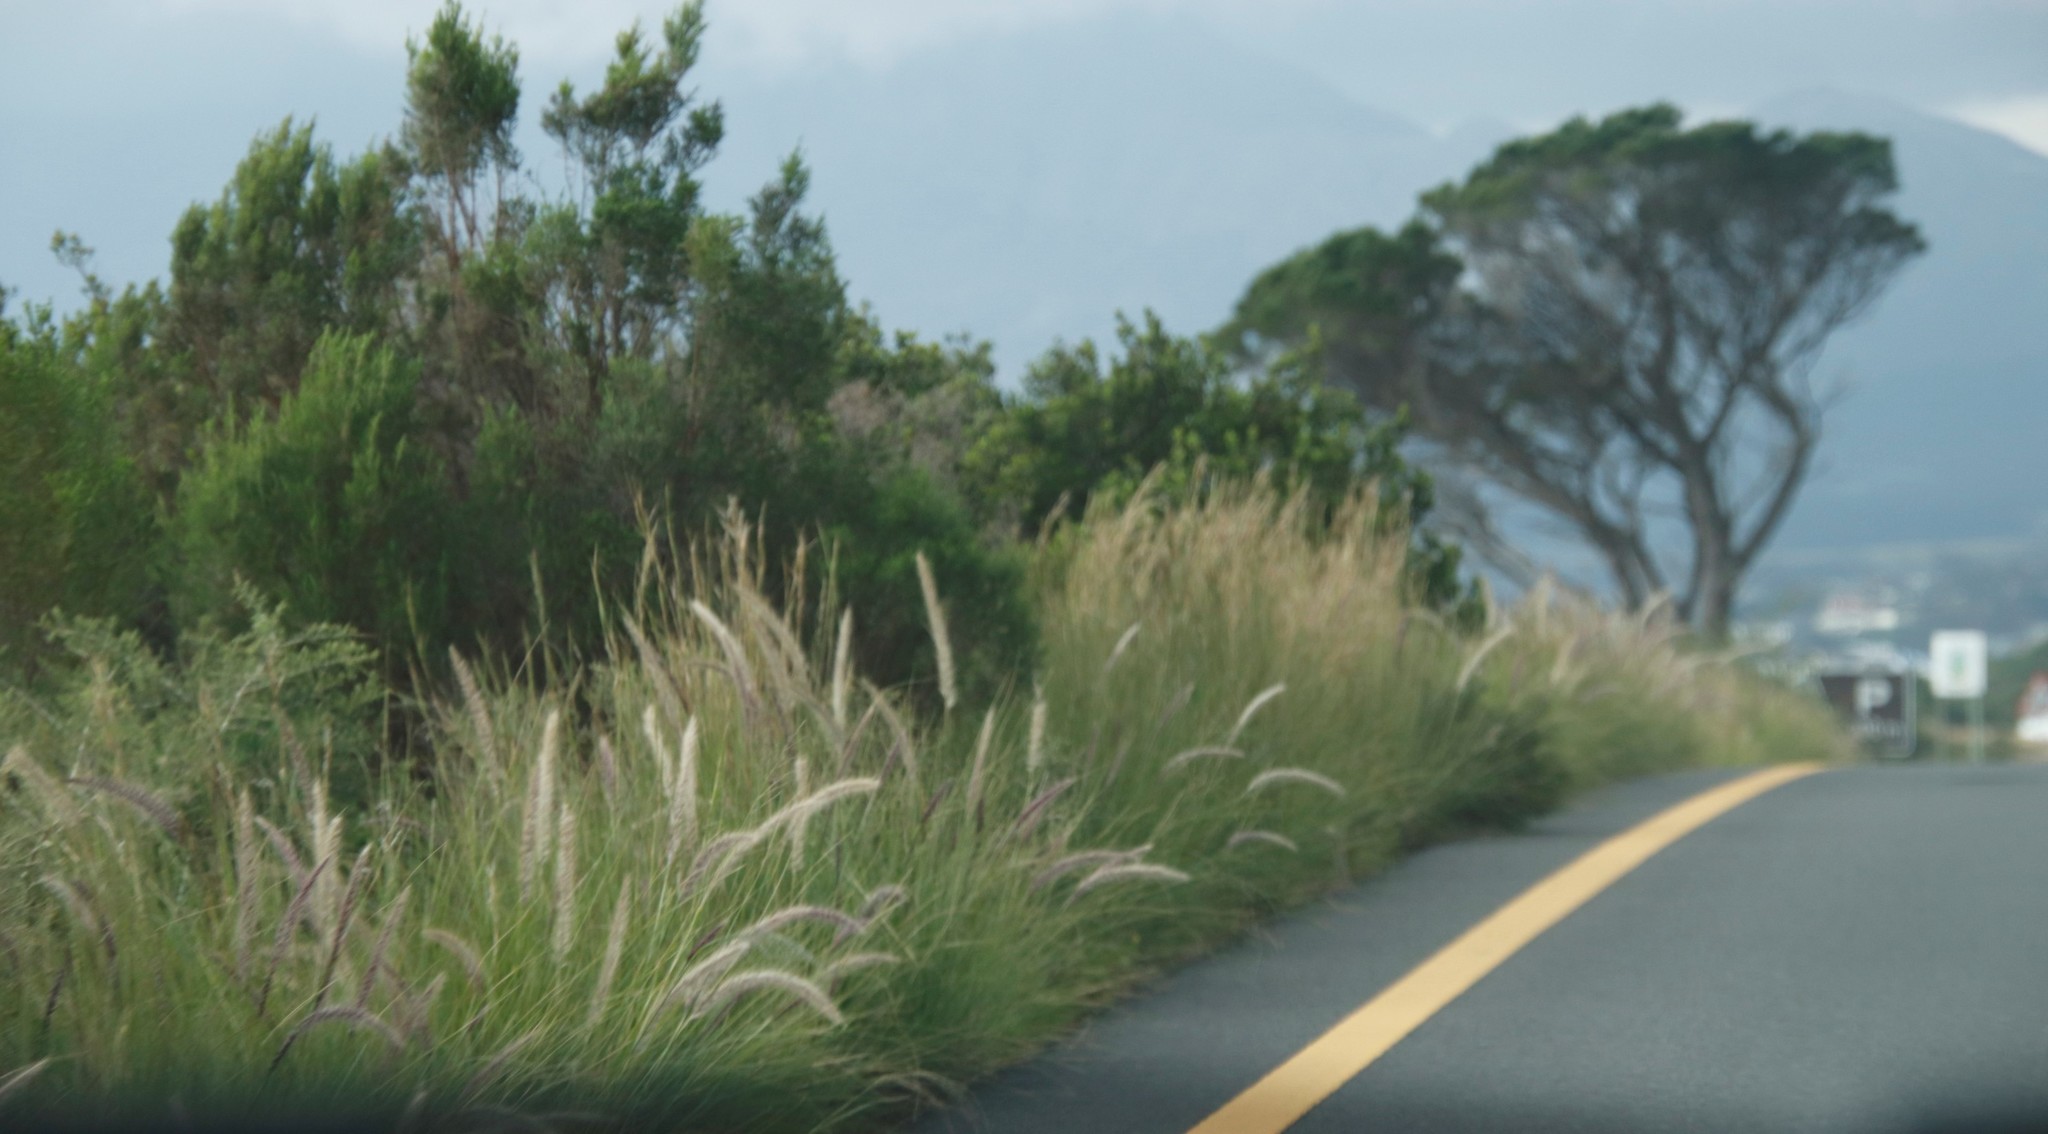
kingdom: Plantae
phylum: Tracheophyta
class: Liliopsida
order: Poales
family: Poaceae
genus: Cenchrus
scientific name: Cenchrus setaceus
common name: Crimson fountaingrass
